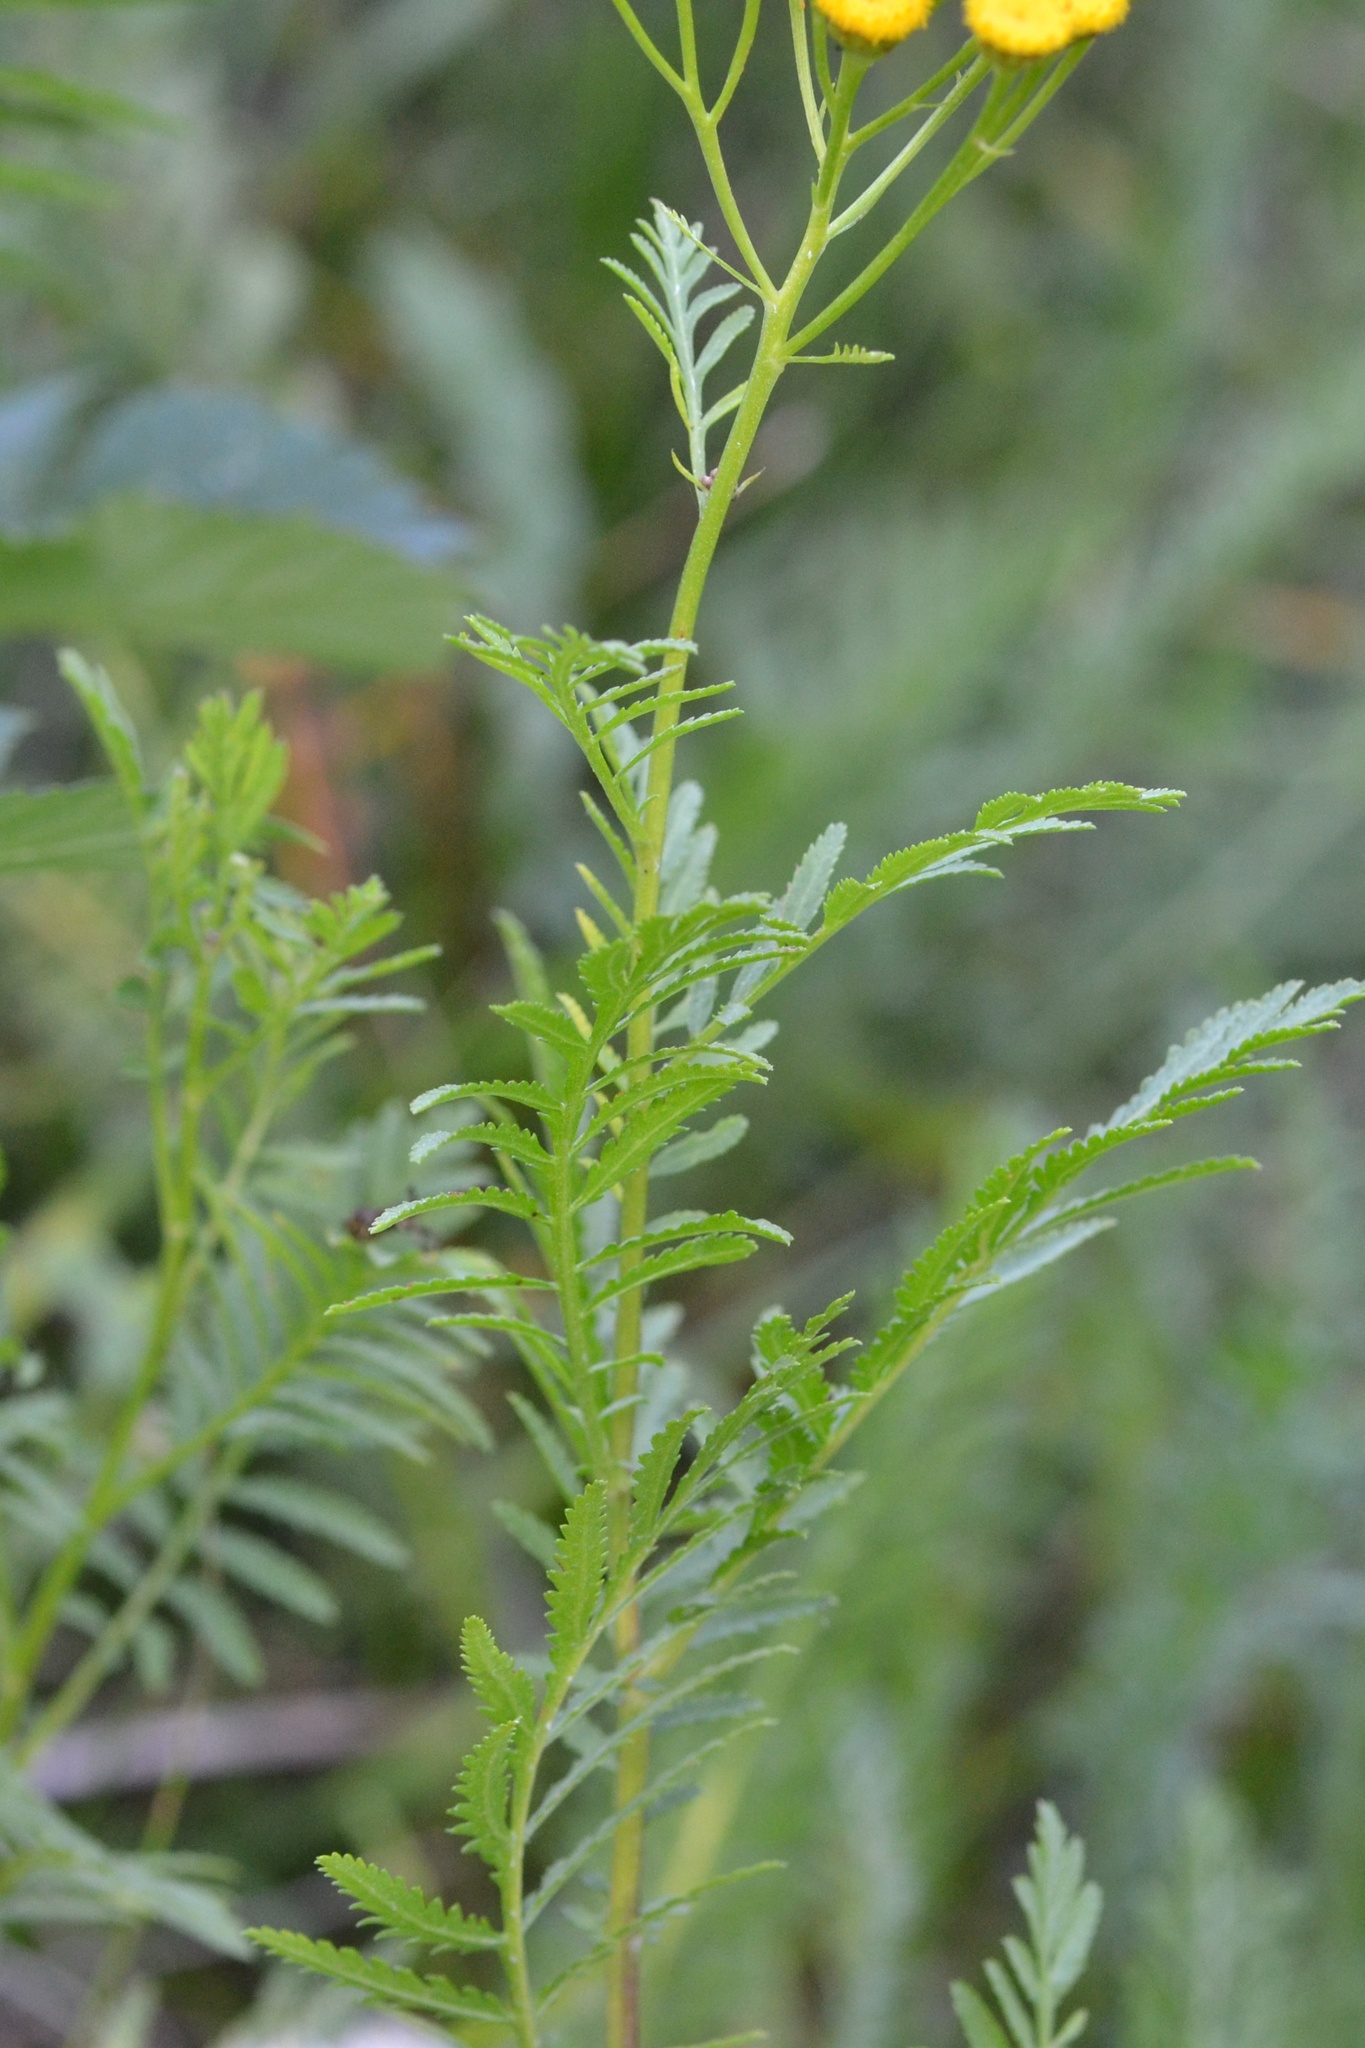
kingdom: Plantae
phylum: Tracheophyta
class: Magnoliopsida
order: Asterales
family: Asteraceae
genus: Tanacetum
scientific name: Tanacetum vulgare
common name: Common tansy
